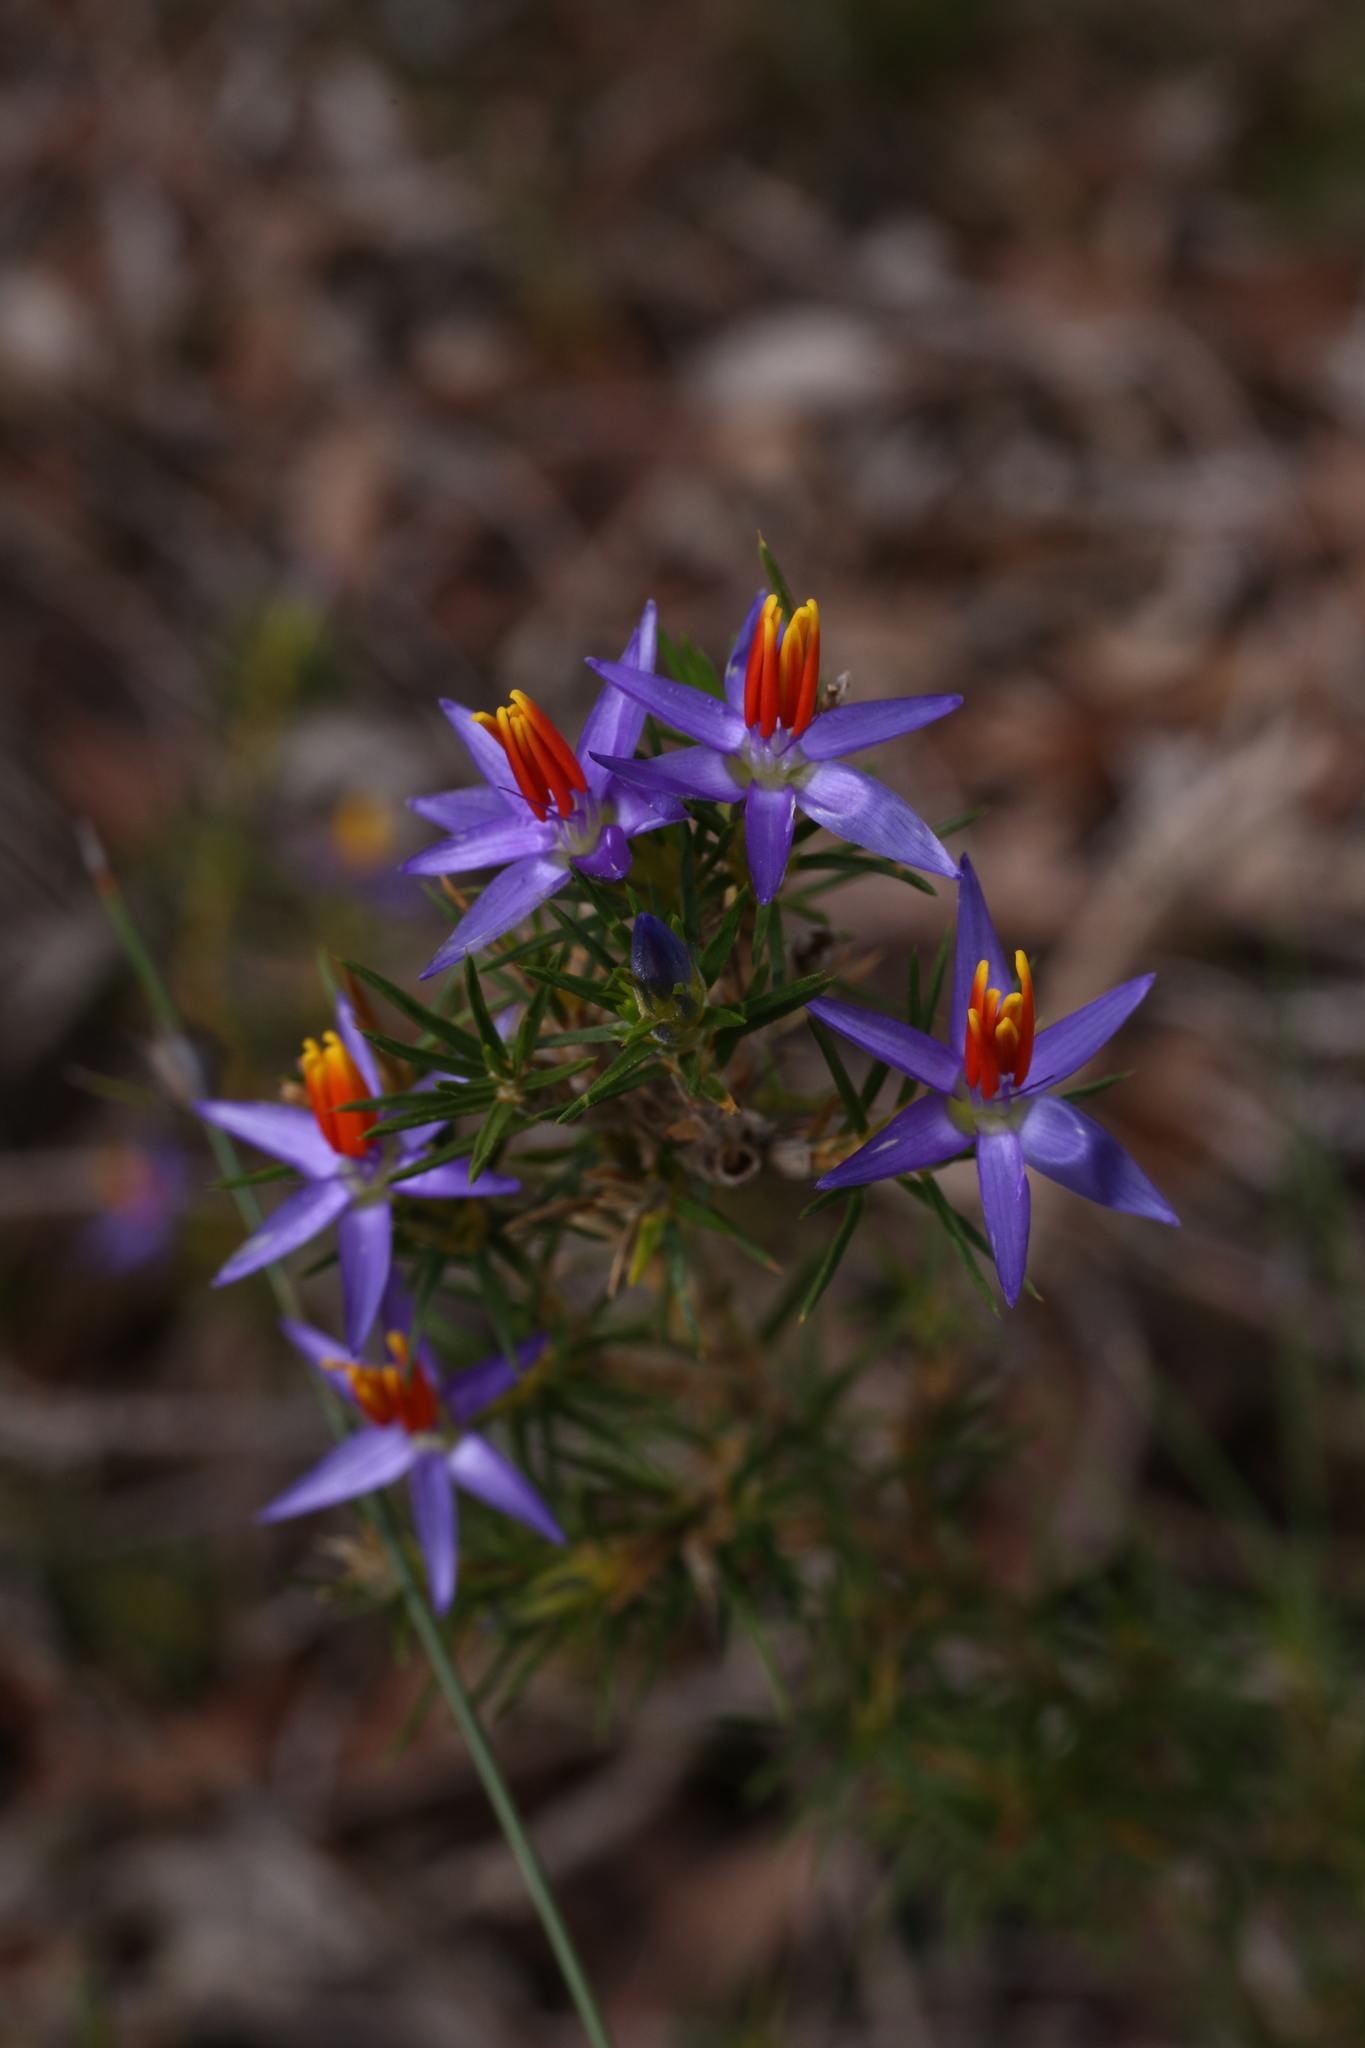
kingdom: Plantae
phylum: Tracheophyta
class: Liliopsida
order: Arecales
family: Dasypogonaceae
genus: Calectasia
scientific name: Calectasia narragara
